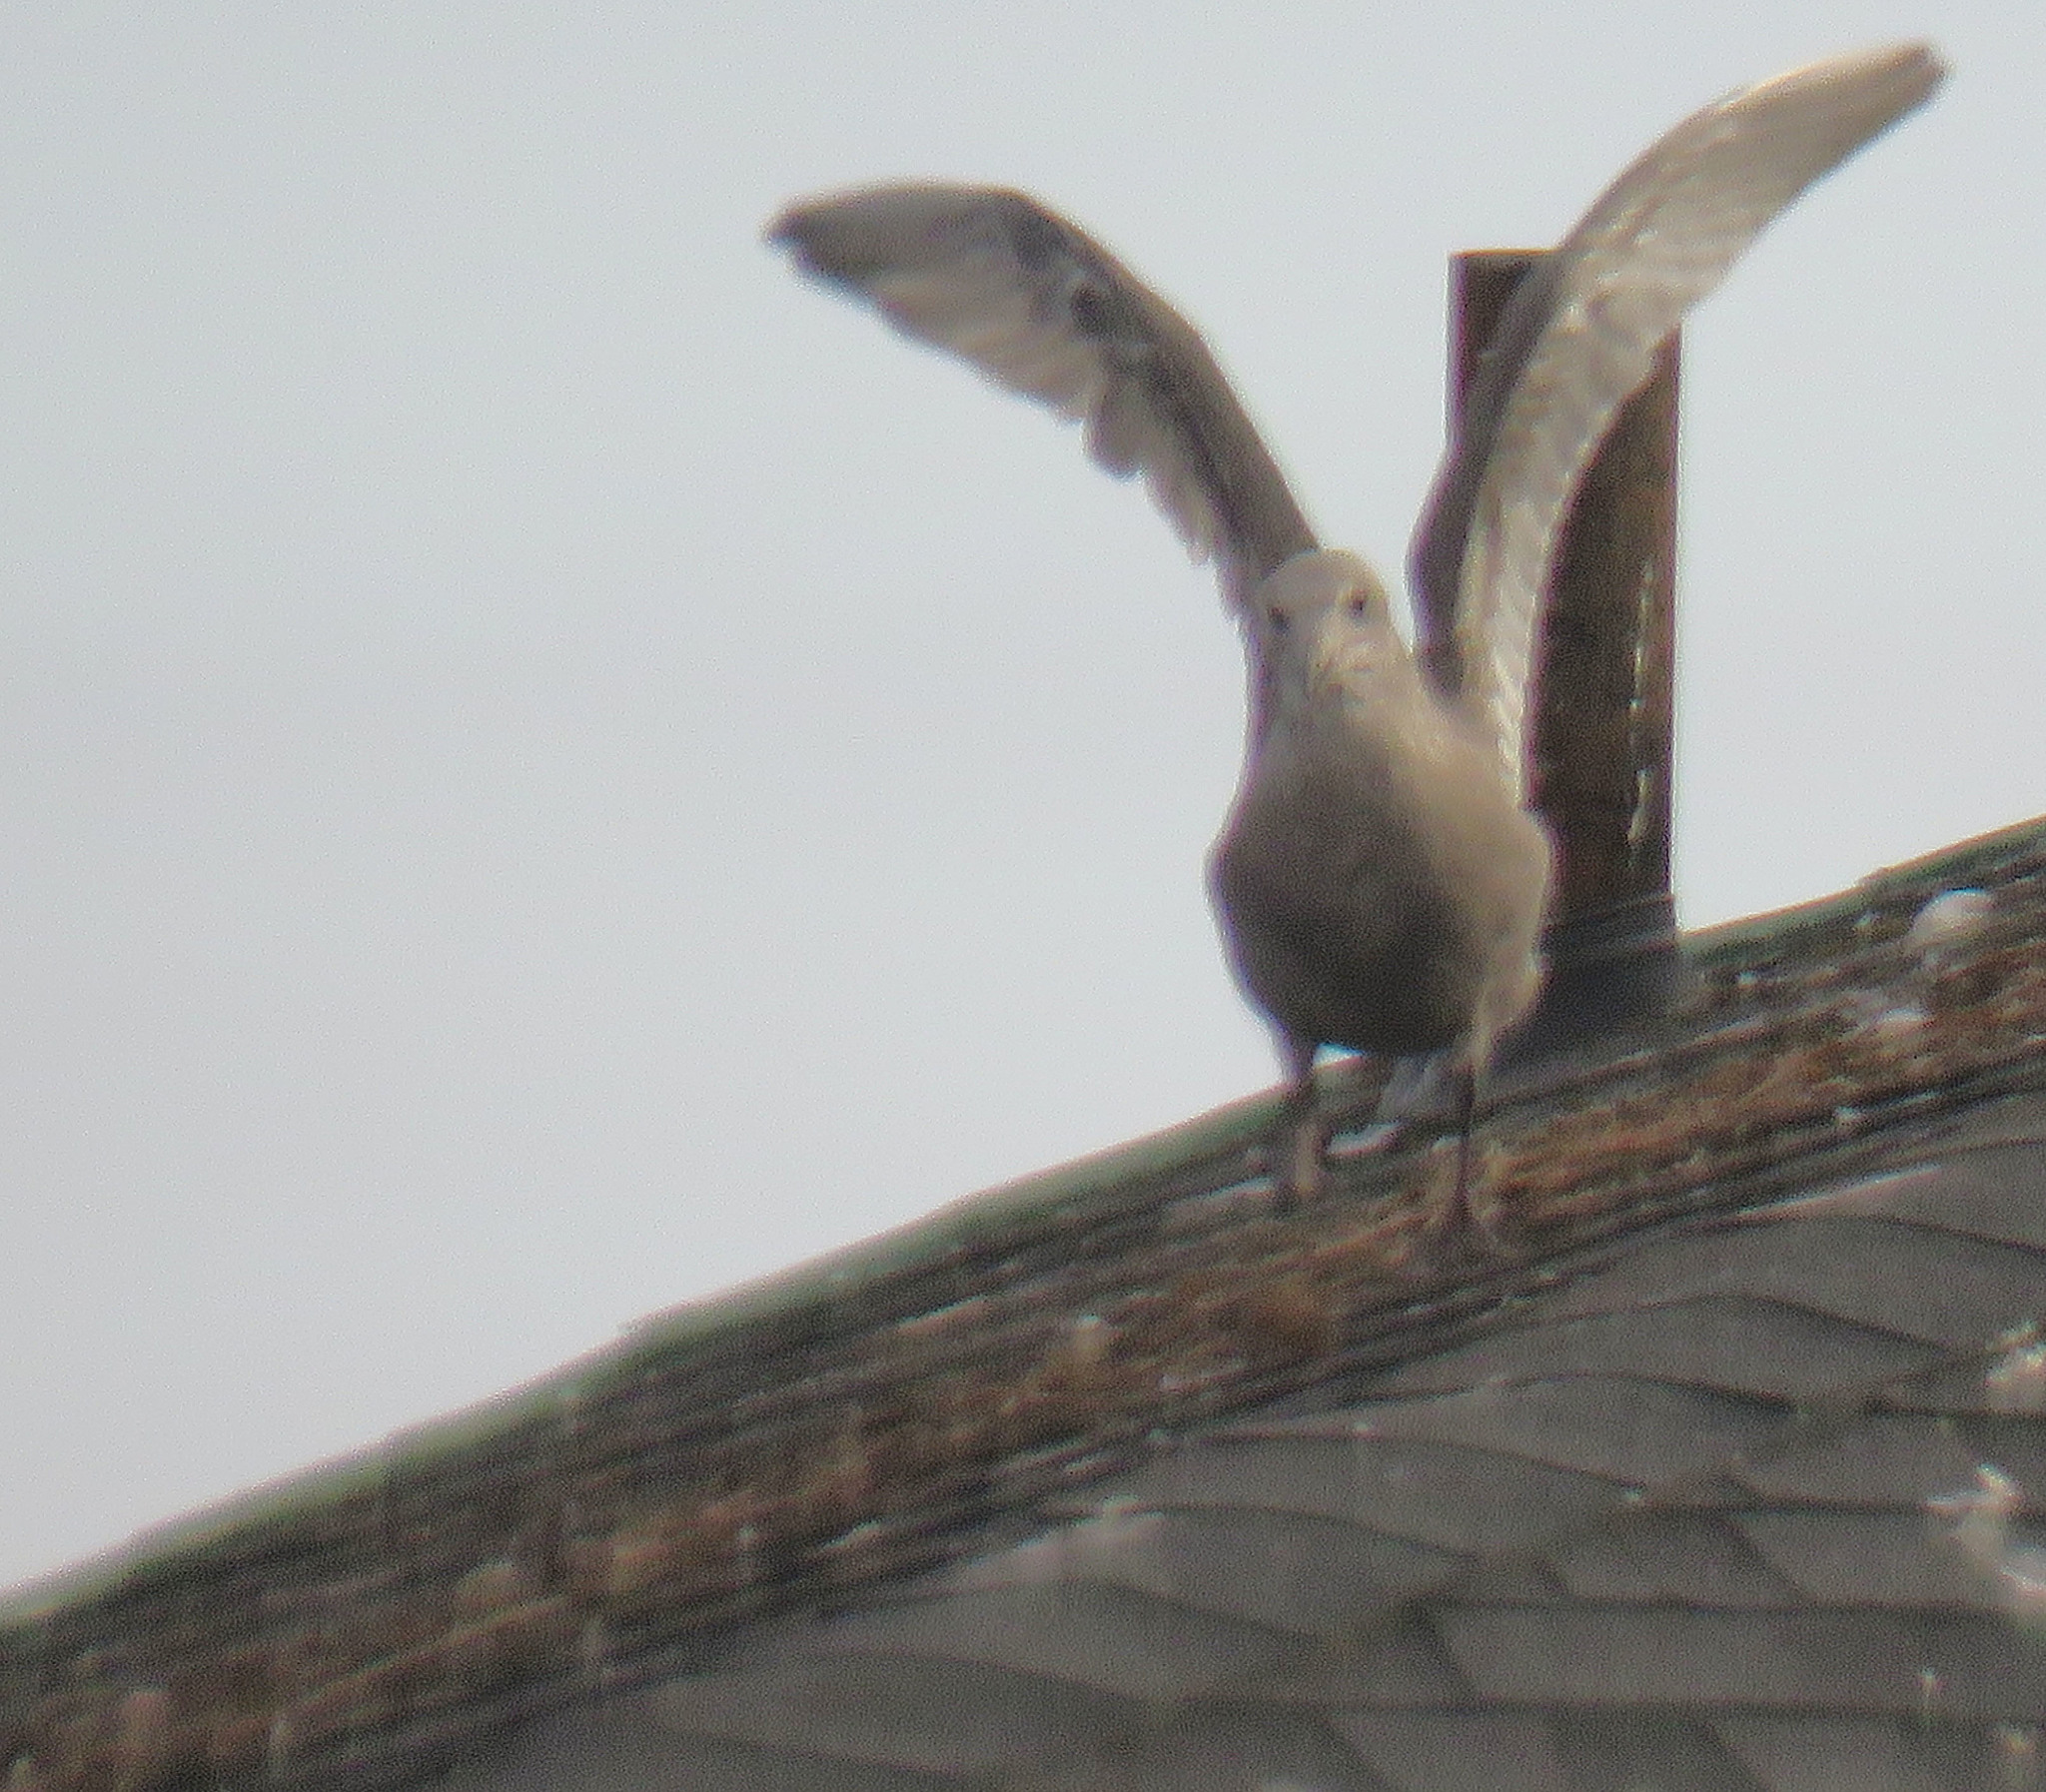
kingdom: Animalia
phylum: Chordata
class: Aves
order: Charadriiformes
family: Laridae
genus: Larus
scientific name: Larus smithsonianus
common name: American herring gull
